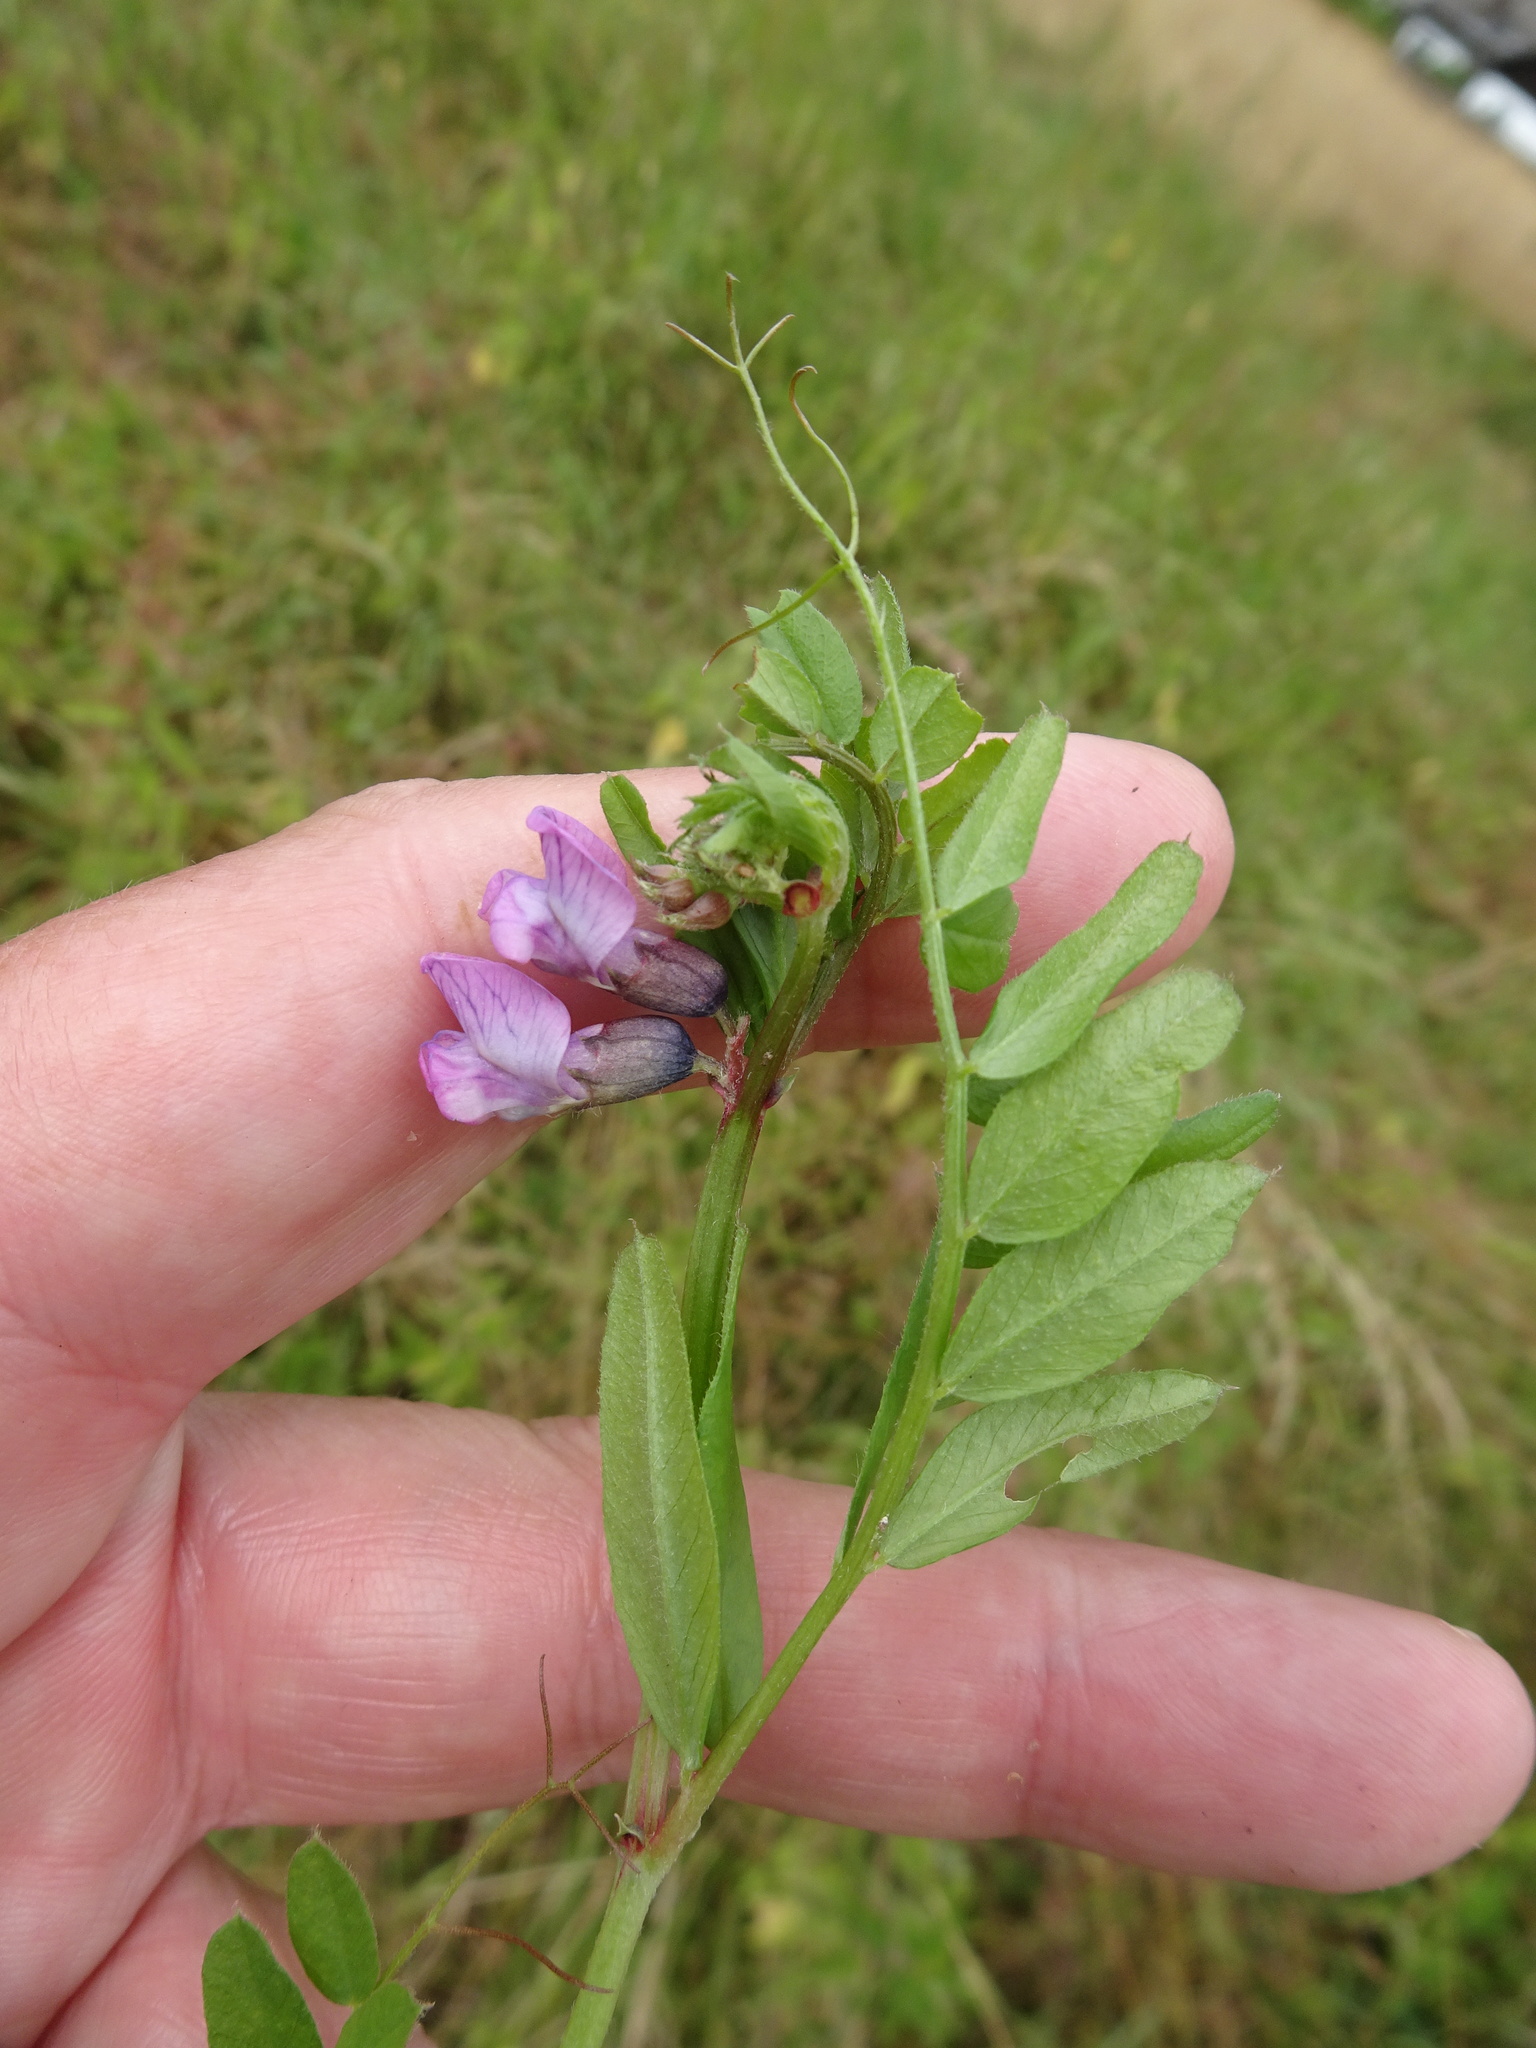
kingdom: Plantae
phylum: Tracheophyta
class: Magnoliopsida
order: Fabales
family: Fabaceae
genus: Vicia
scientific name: Vicia sepium
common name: Bush vetch
